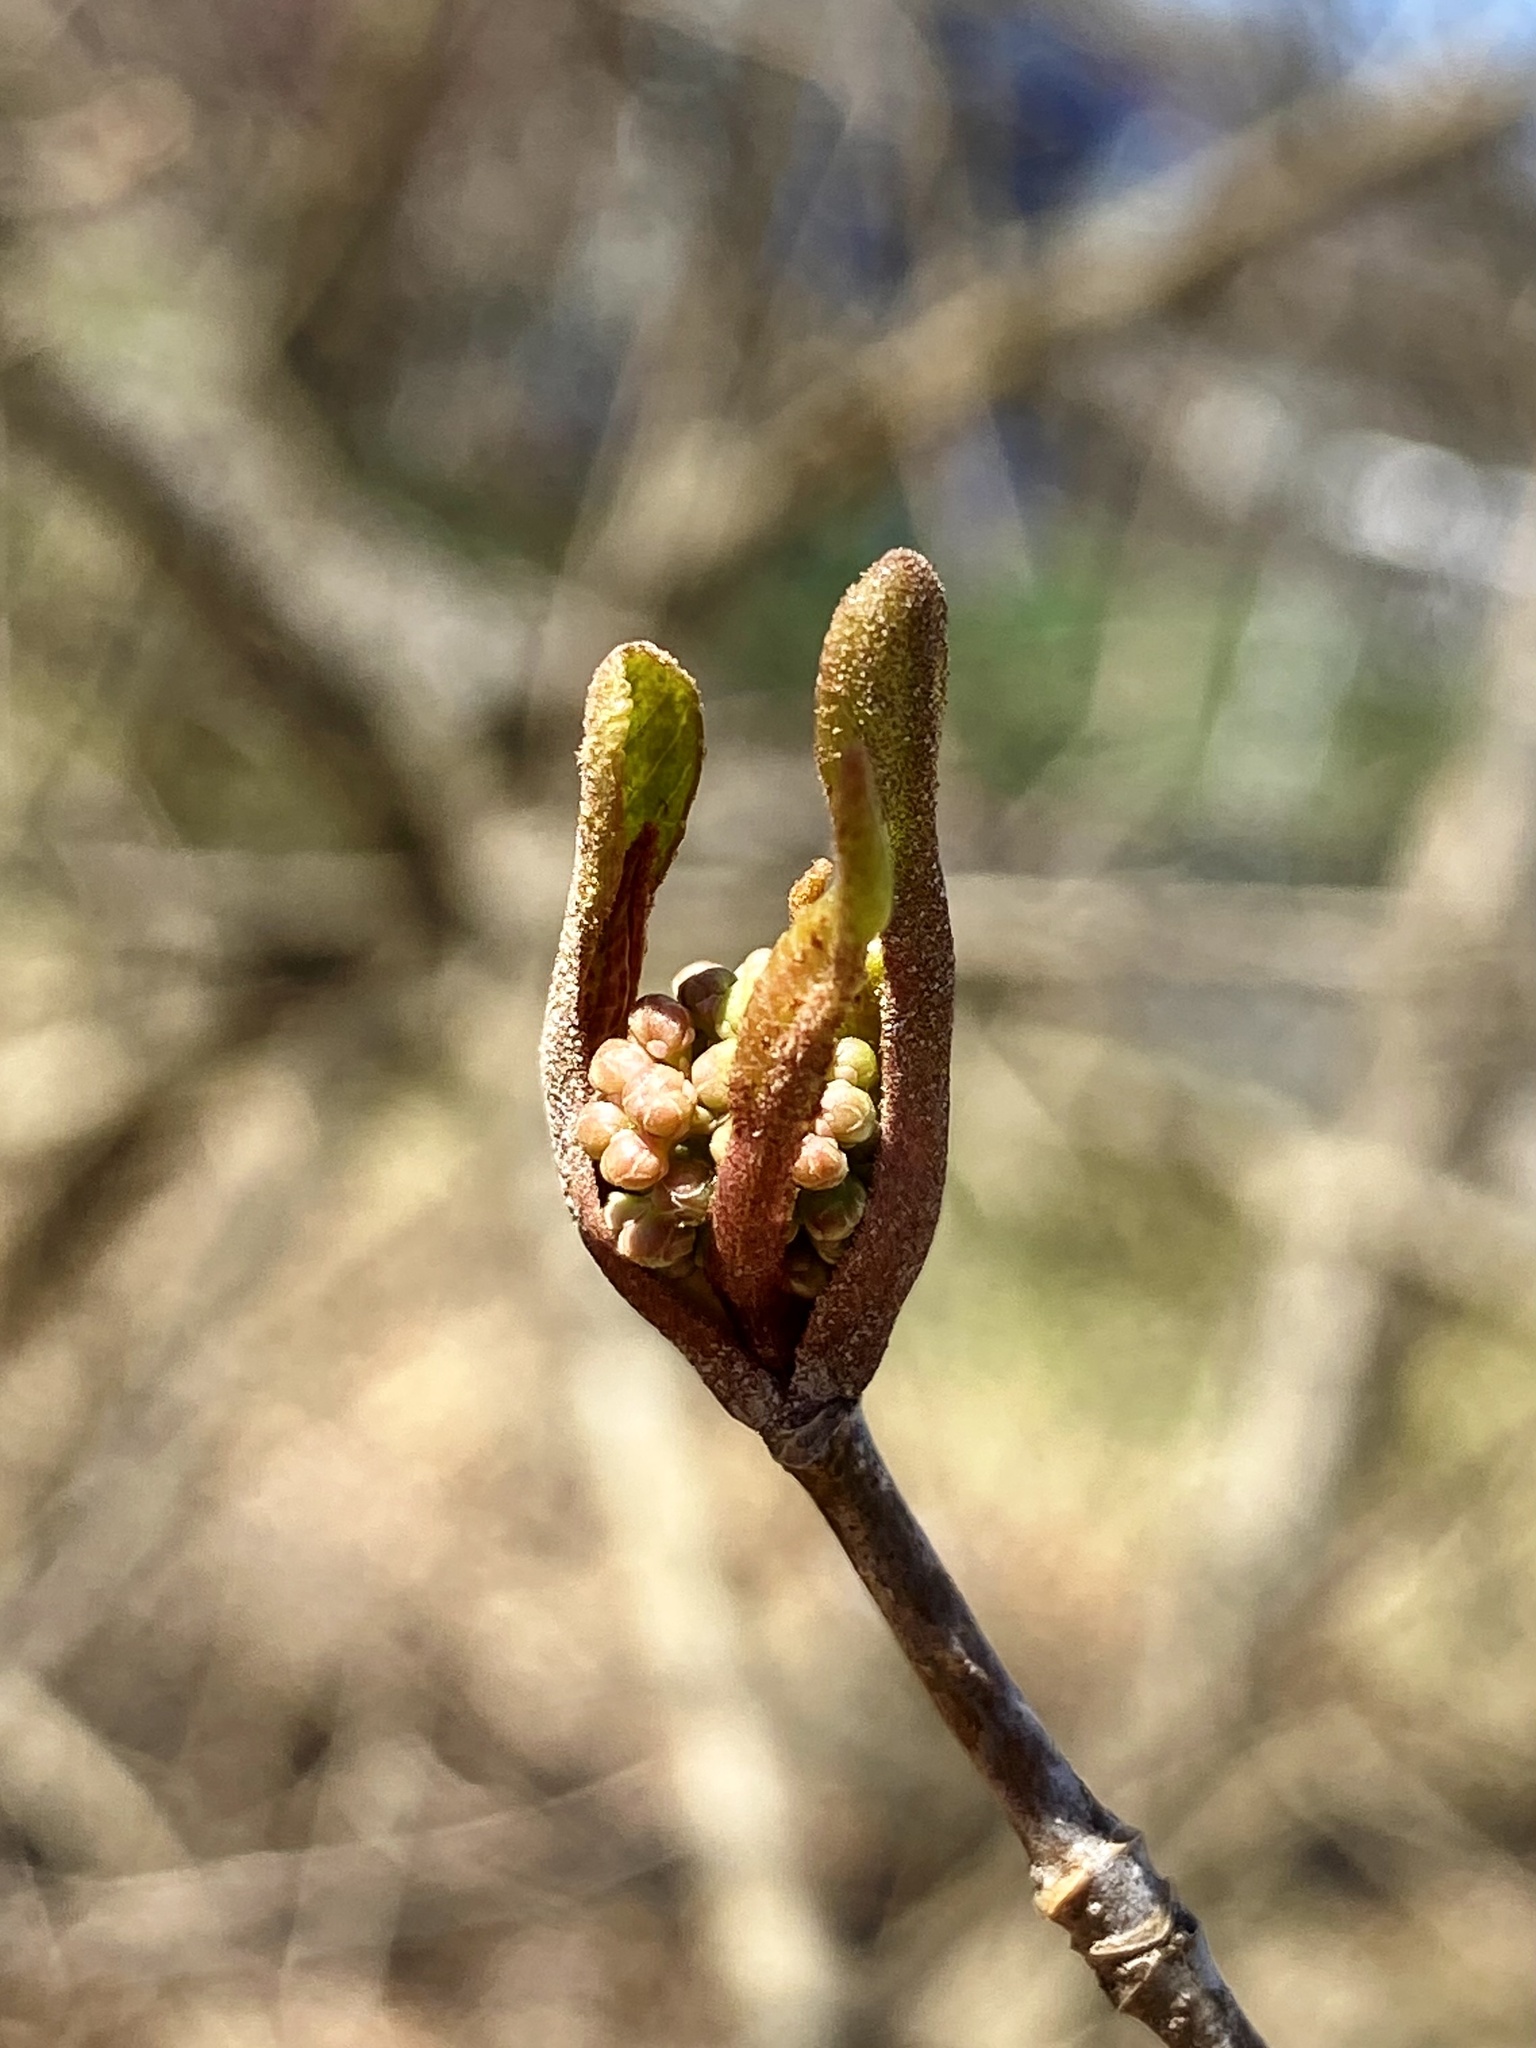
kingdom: Plantae
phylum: Tracheophyta
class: Magnoliopsida
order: Dipsacales
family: Viburnaceae
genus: Viburnum
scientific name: Viburnum prunifolium
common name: Black haw
